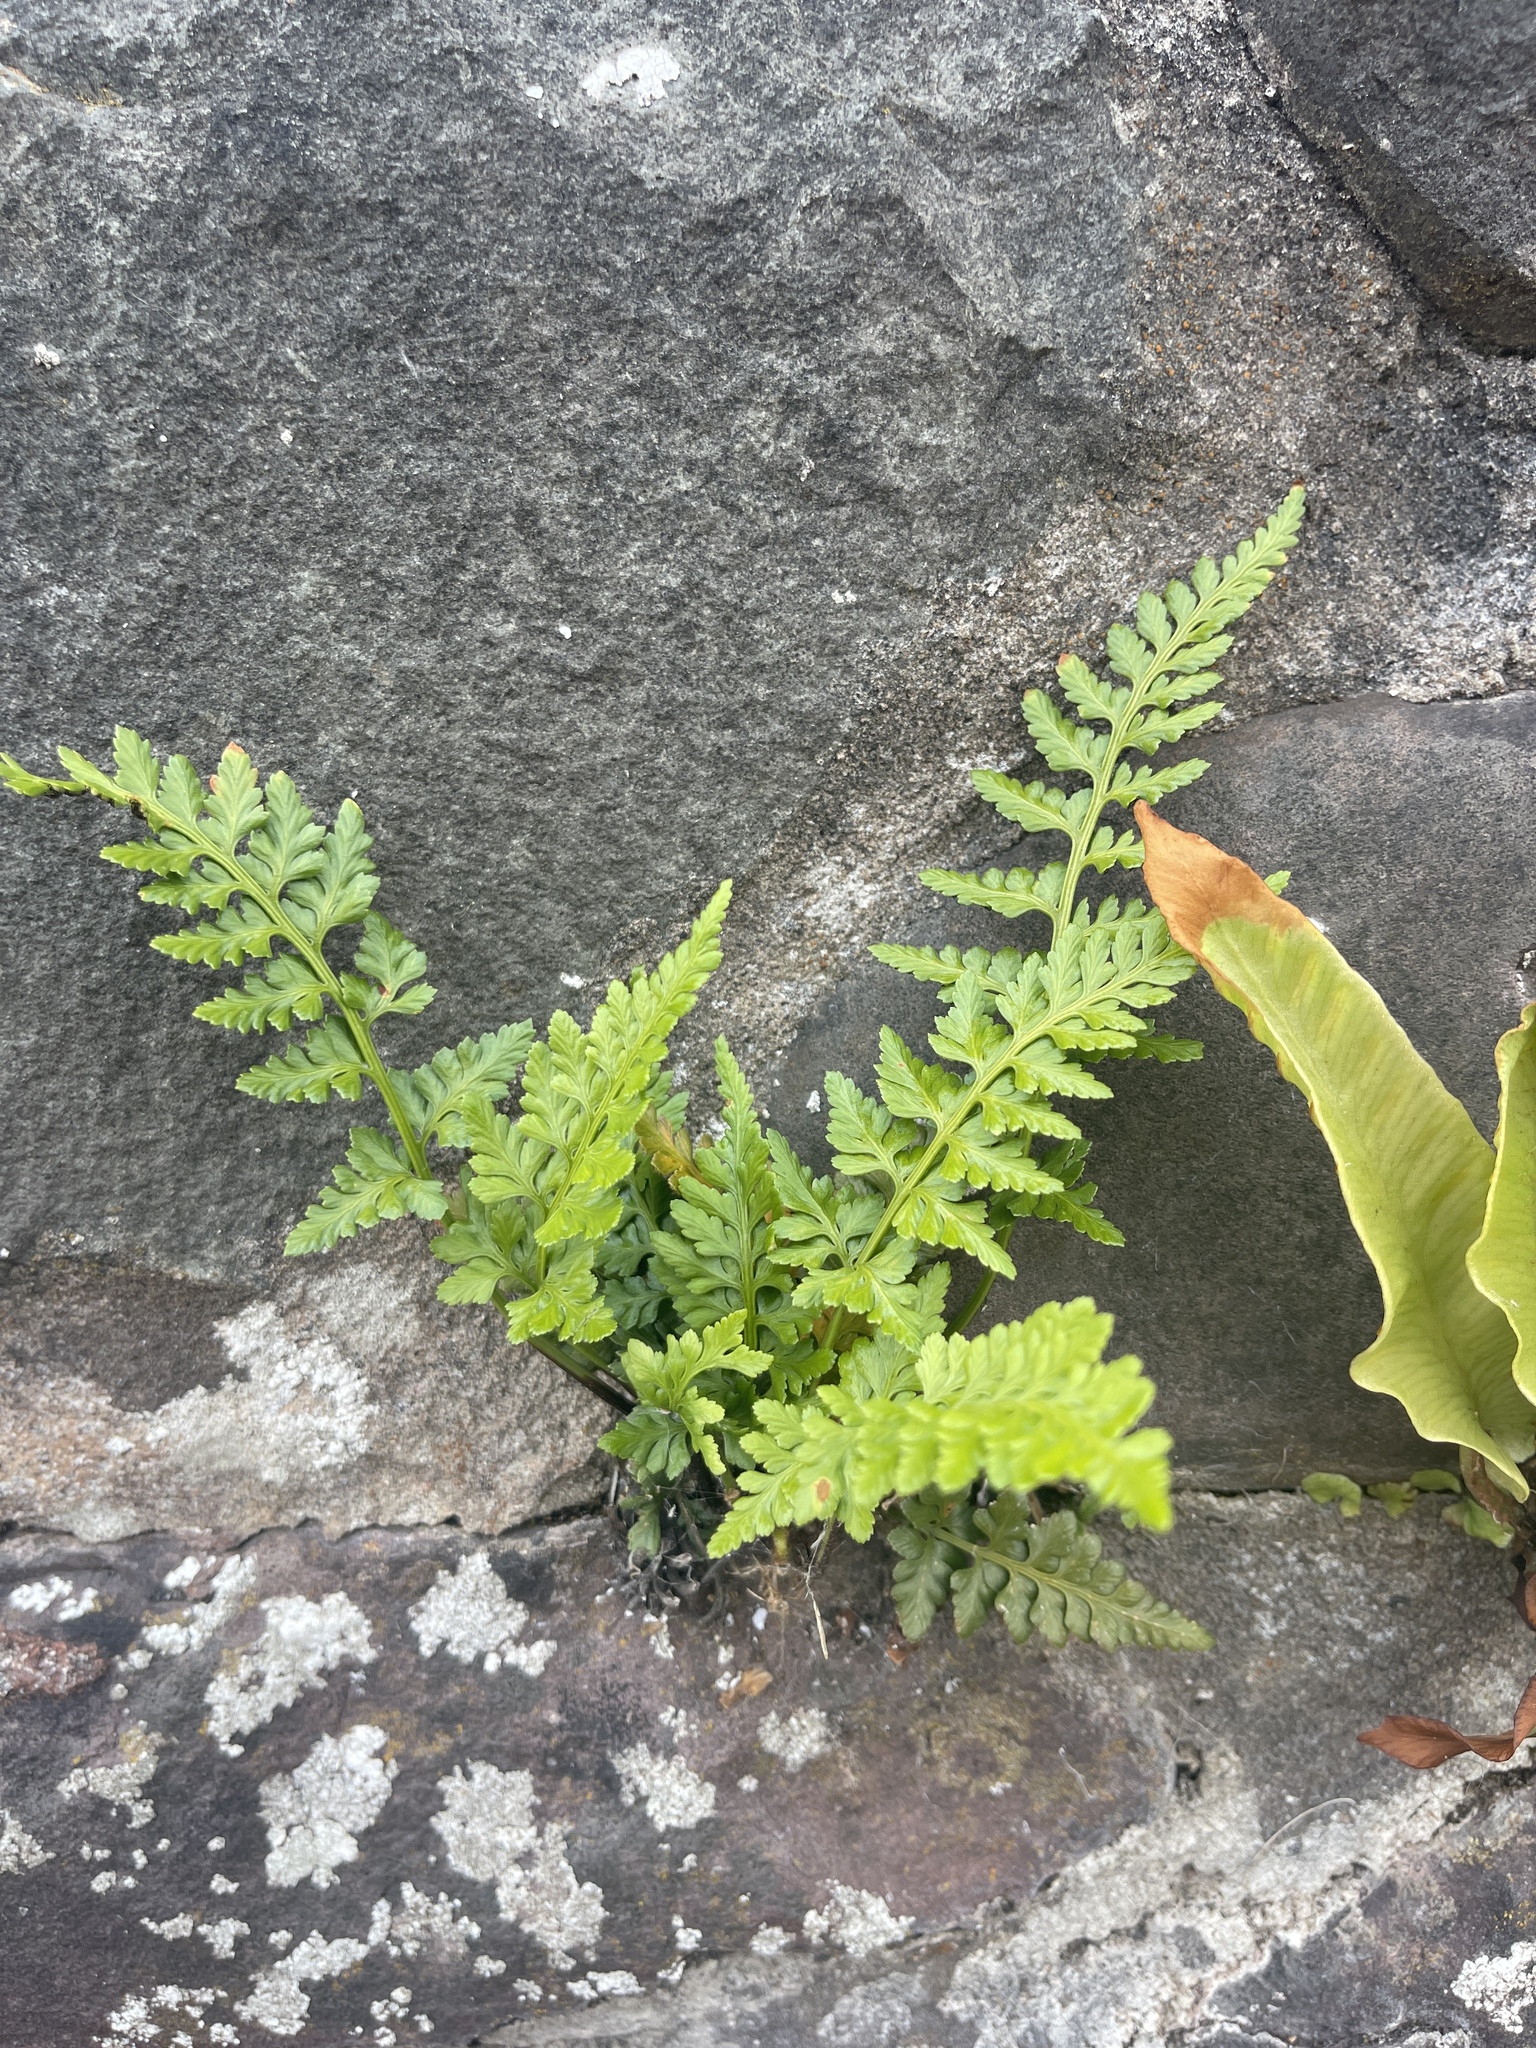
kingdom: Plantae
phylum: Tracheophyta
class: Polypodiopsida
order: Polypodiales
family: Aspleniaceae
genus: Asplenium
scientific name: Asplenium adiantum-nigrum
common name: Black spleenwort
